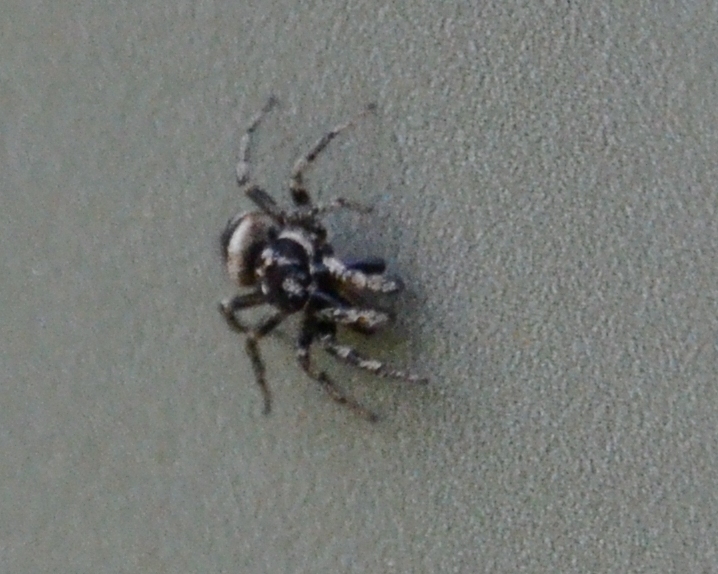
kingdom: Animalia
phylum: Arthropoda
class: Arachnida
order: Araneae
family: Salticidae
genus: Salticus
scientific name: Salticus scenicus
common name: Zebra jumper
